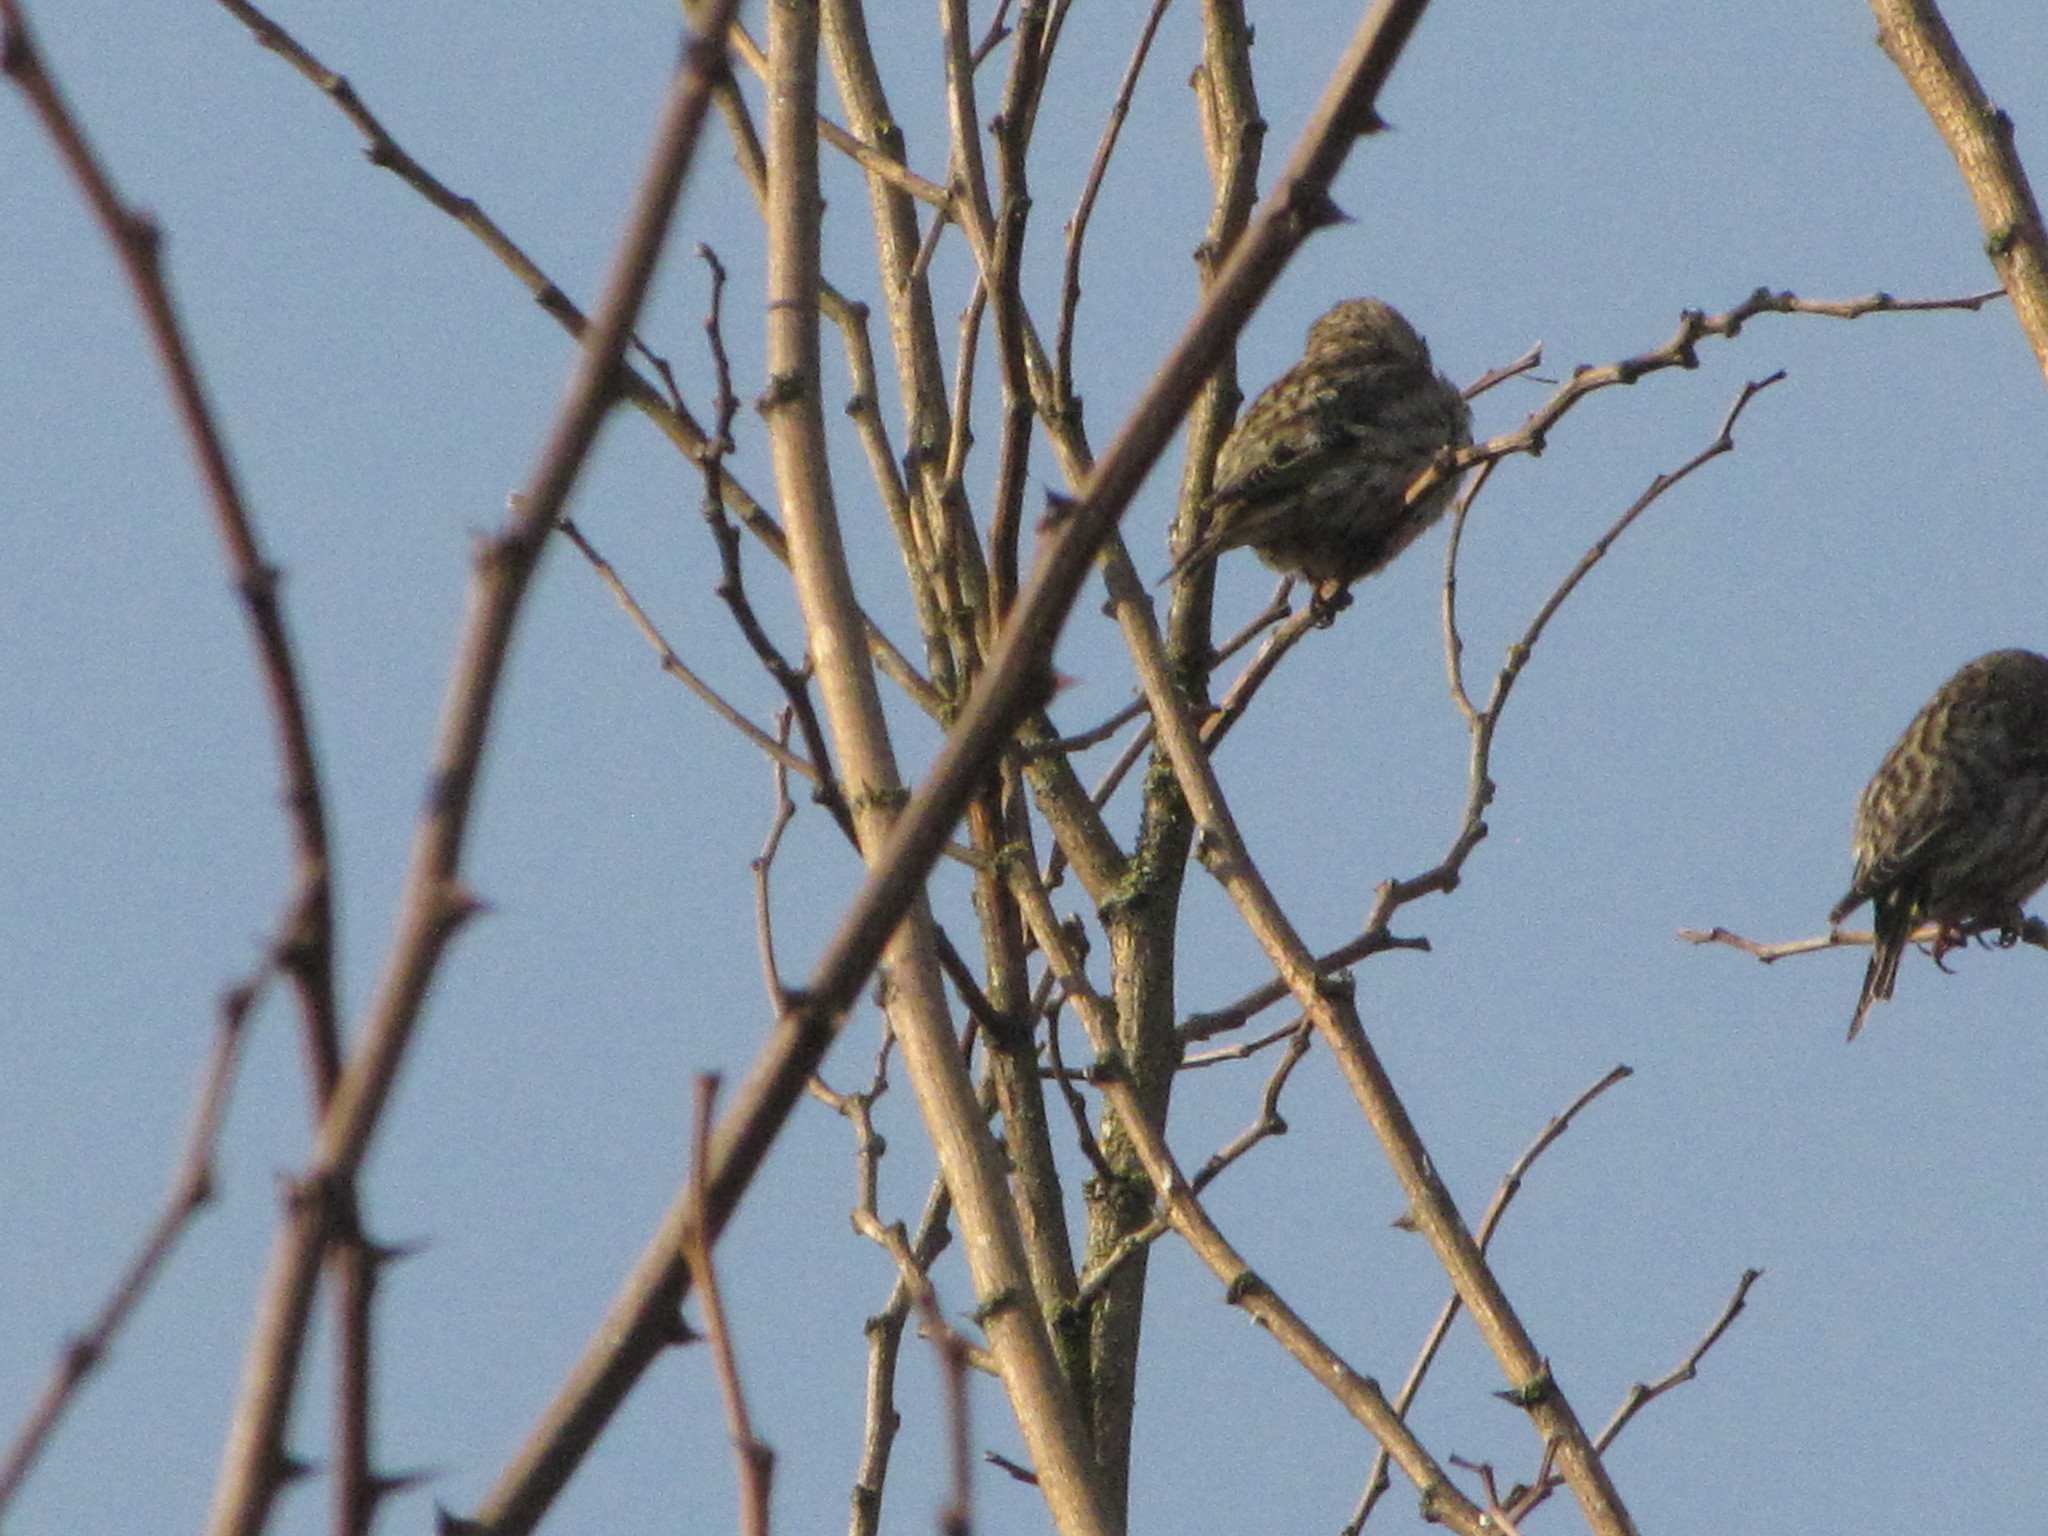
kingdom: Animalia
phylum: Chordata
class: Aves
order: Passeriformes
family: Fringillidae
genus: Spinus
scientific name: Spinus pinus
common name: Pine siskin
